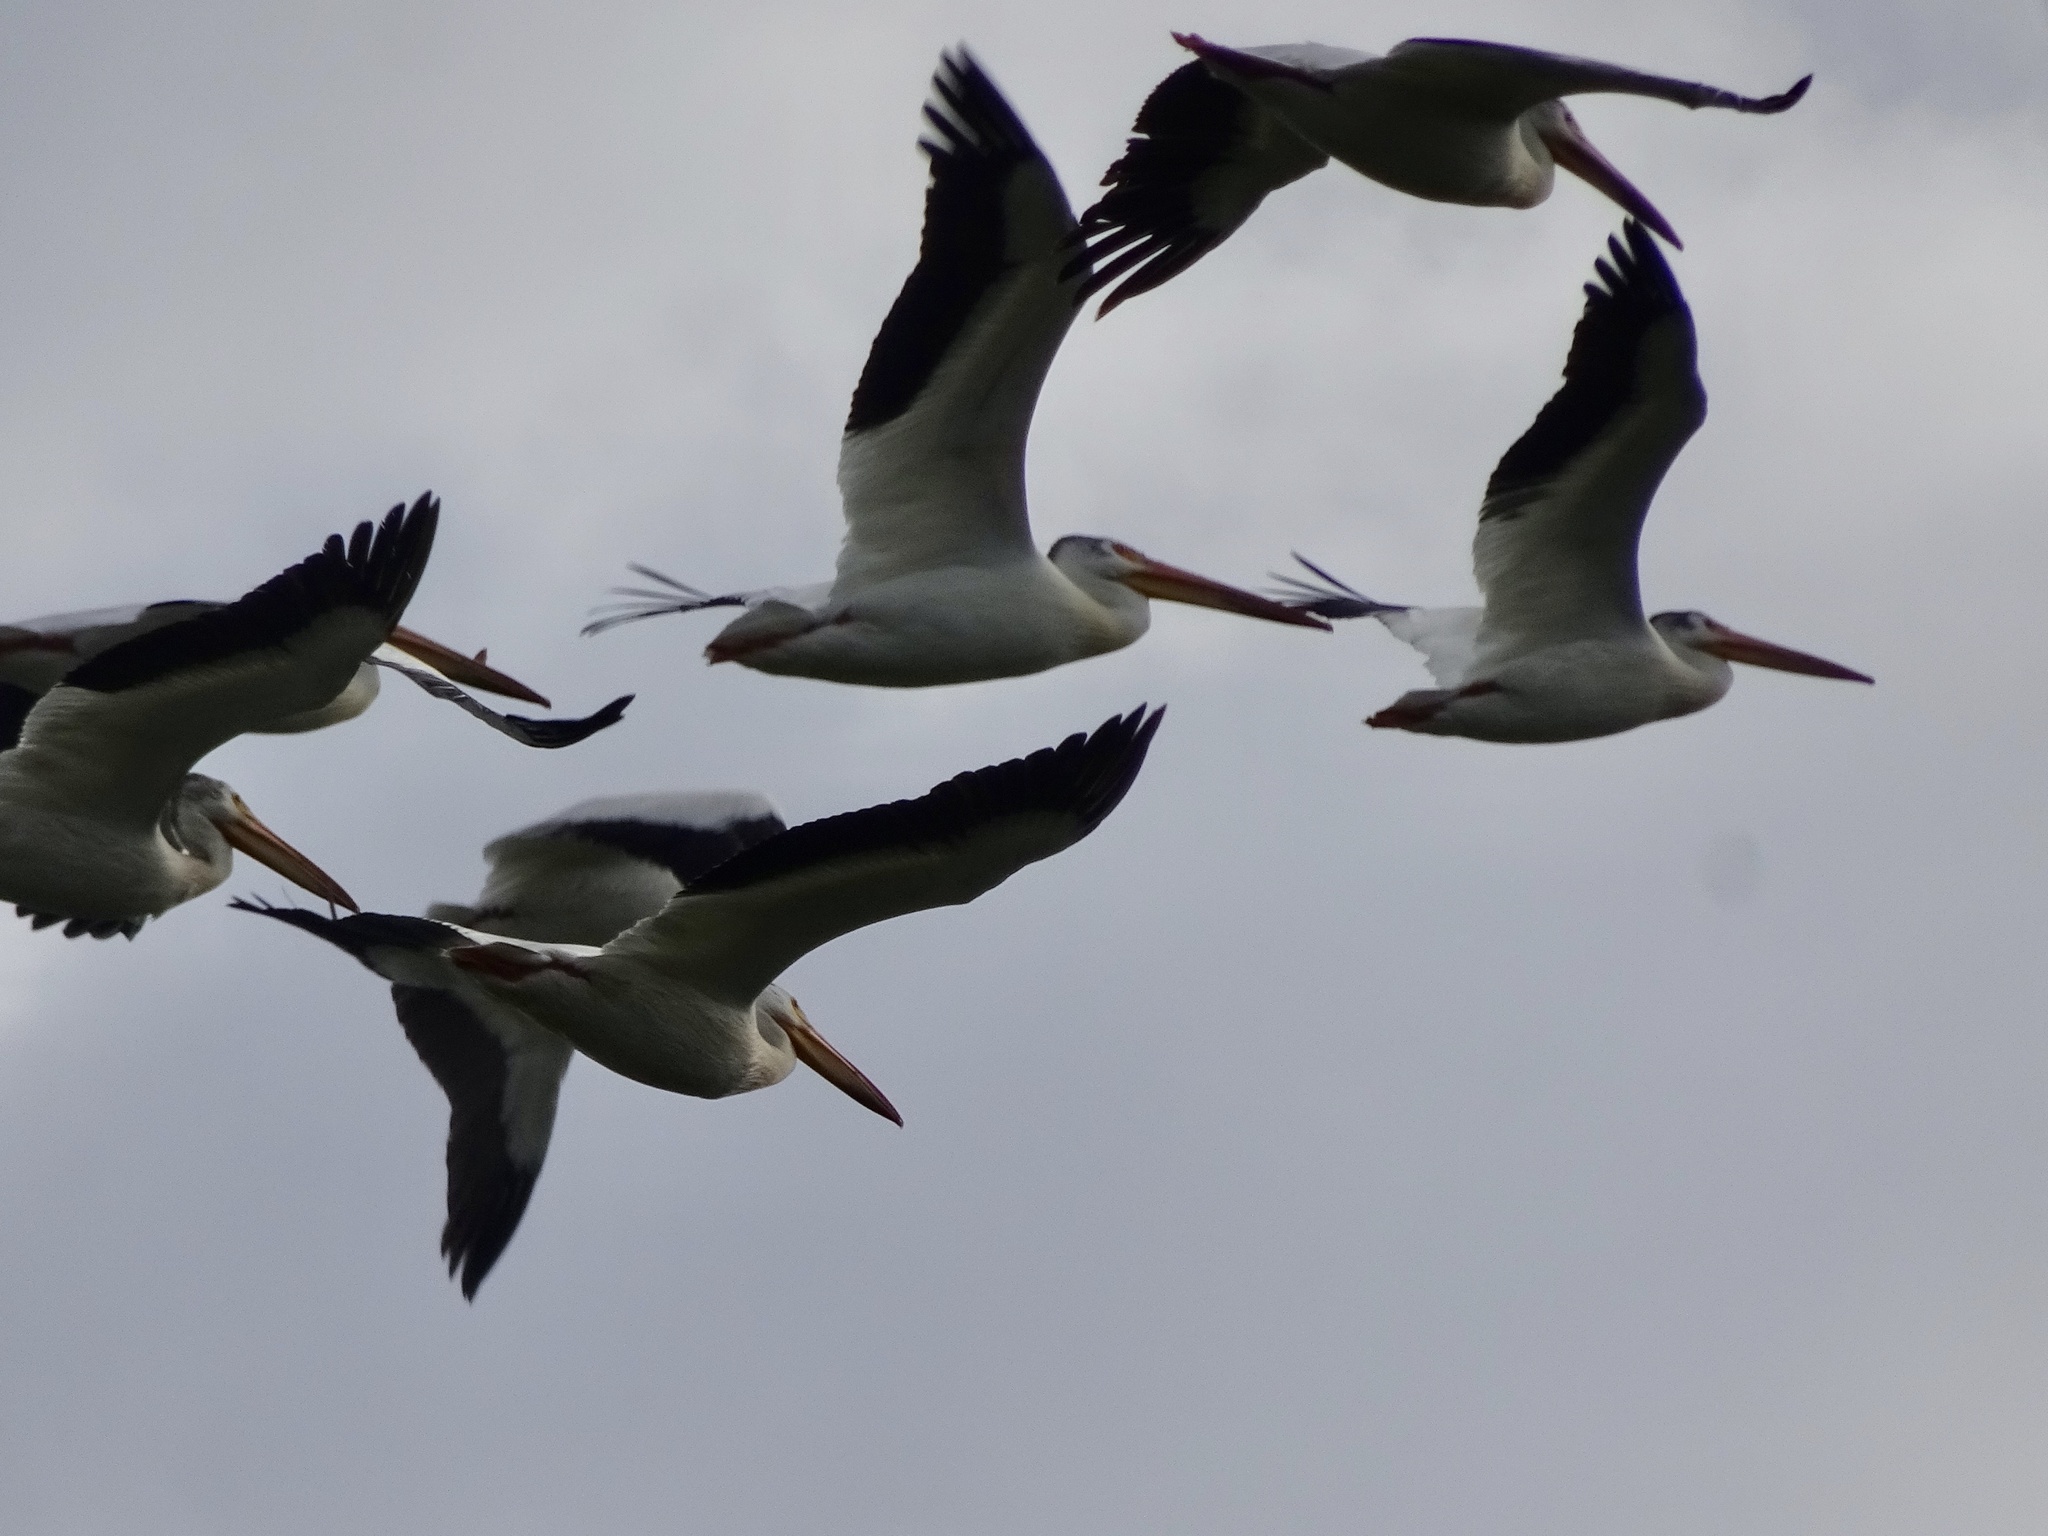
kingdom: Animalia
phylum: Chordata
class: Aves
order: Pelecaniformes
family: Pelecanidae
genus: Pelecanus
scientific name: Pelecanus erythrorhynchos
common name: American white pelican
